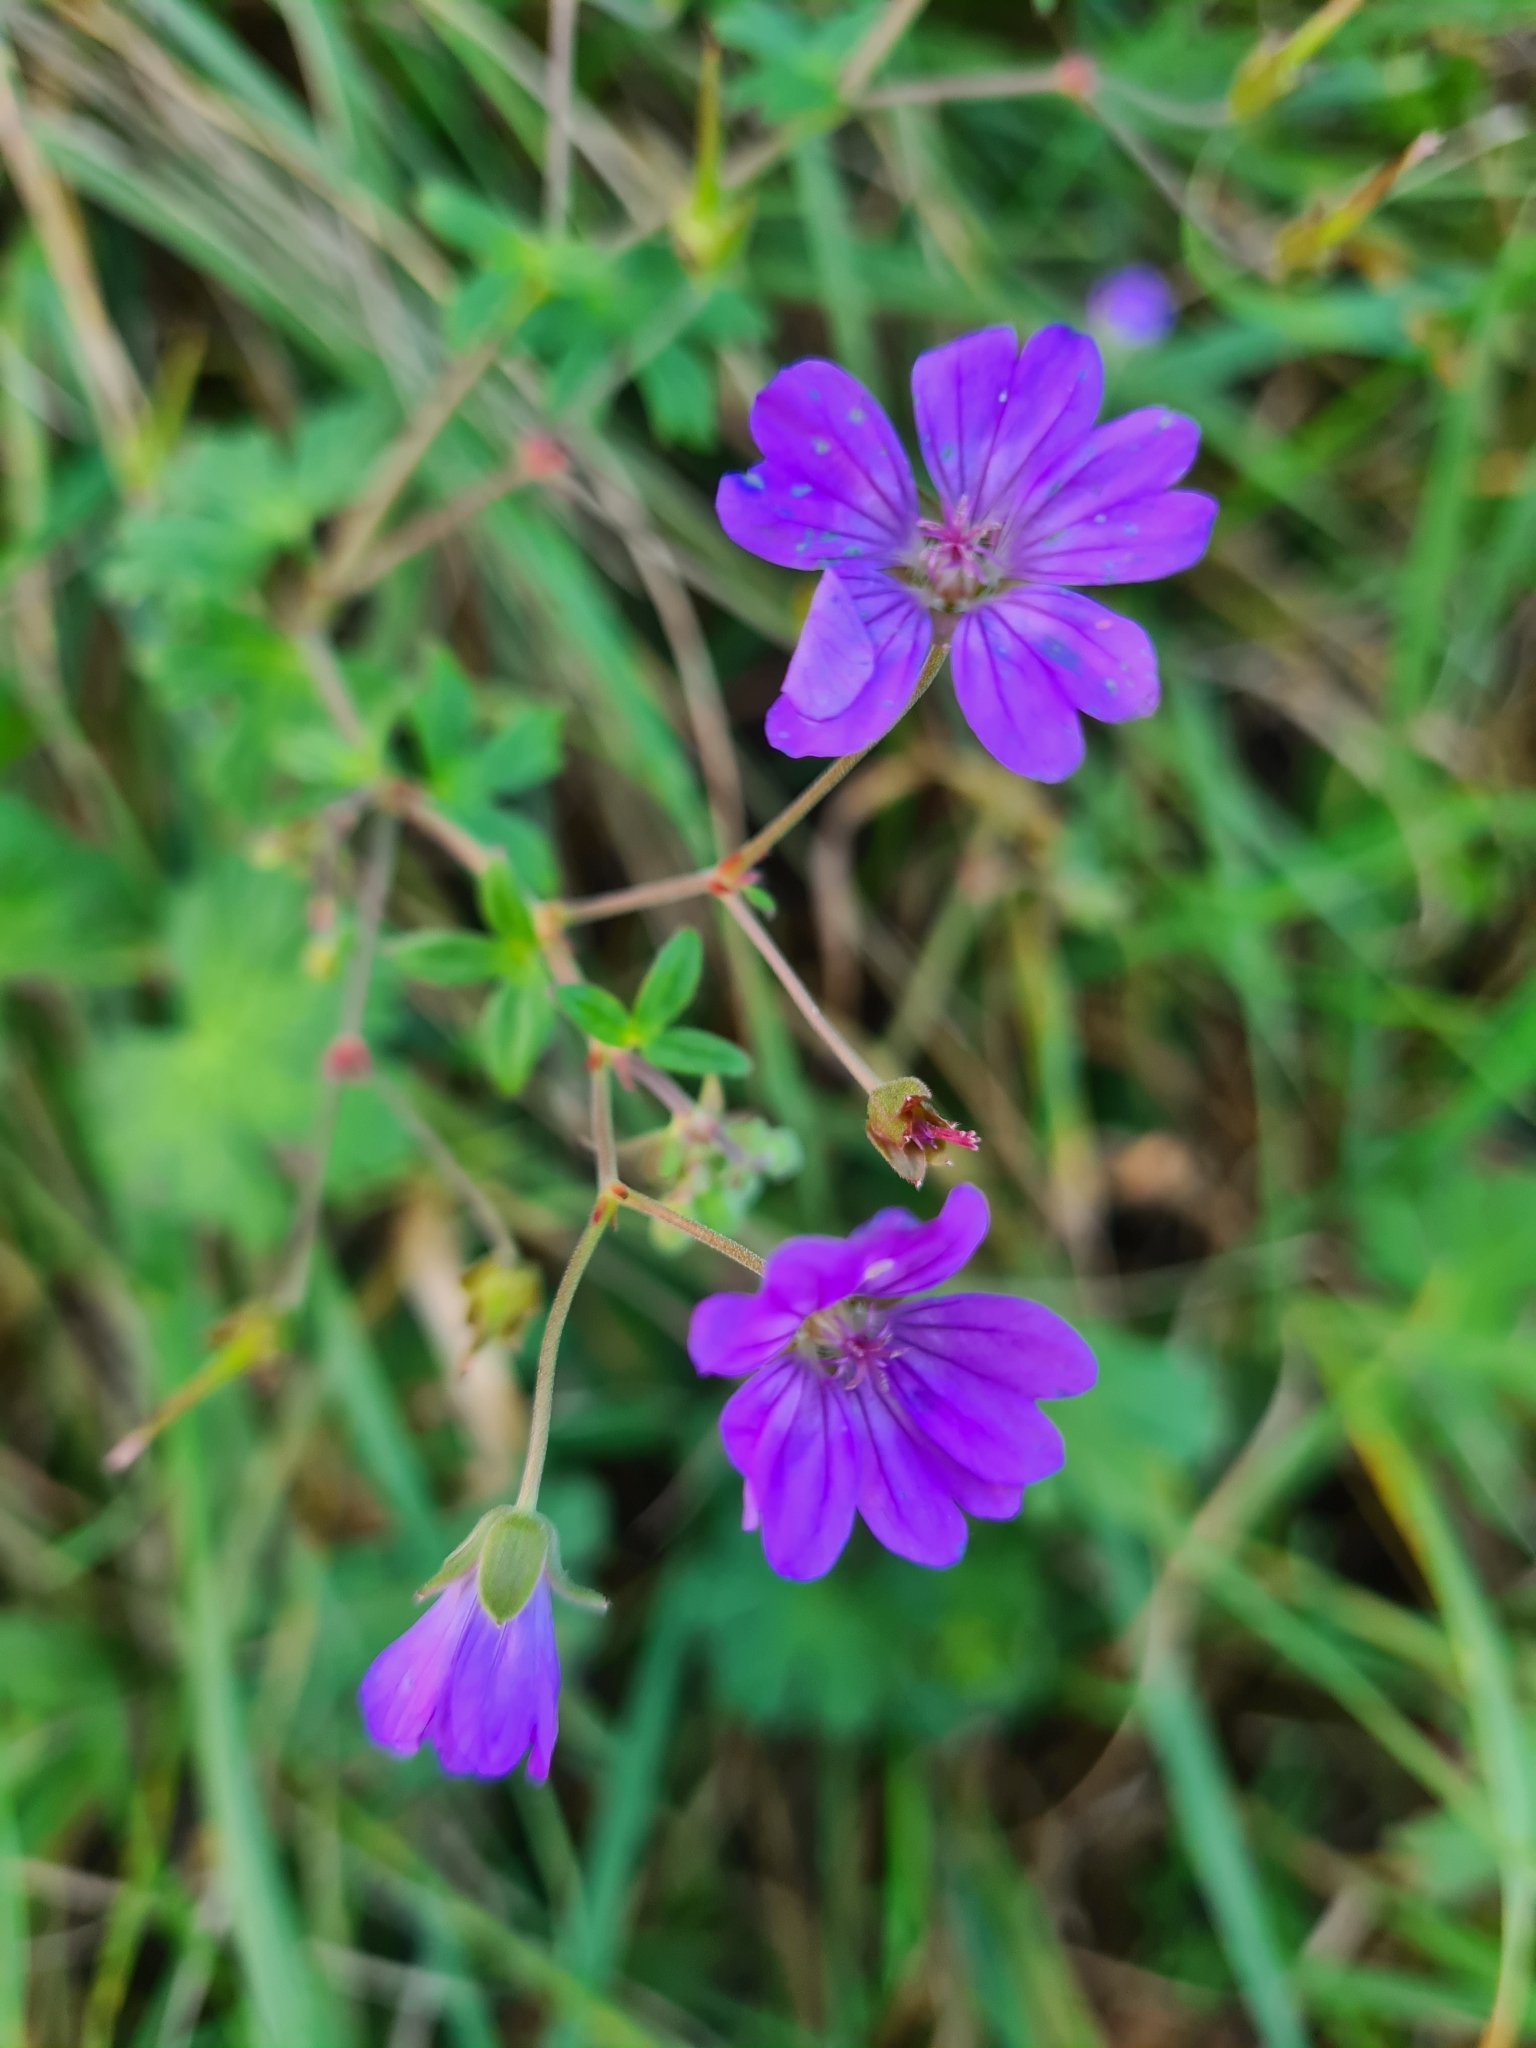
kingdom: Plantae
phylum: Tracheophyta
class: Magnoliopsida
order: Geraniales
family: Geraniaceae
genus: Geranium
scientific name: Geranium pyrenaicum
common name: Hedgerow crane's-bill
